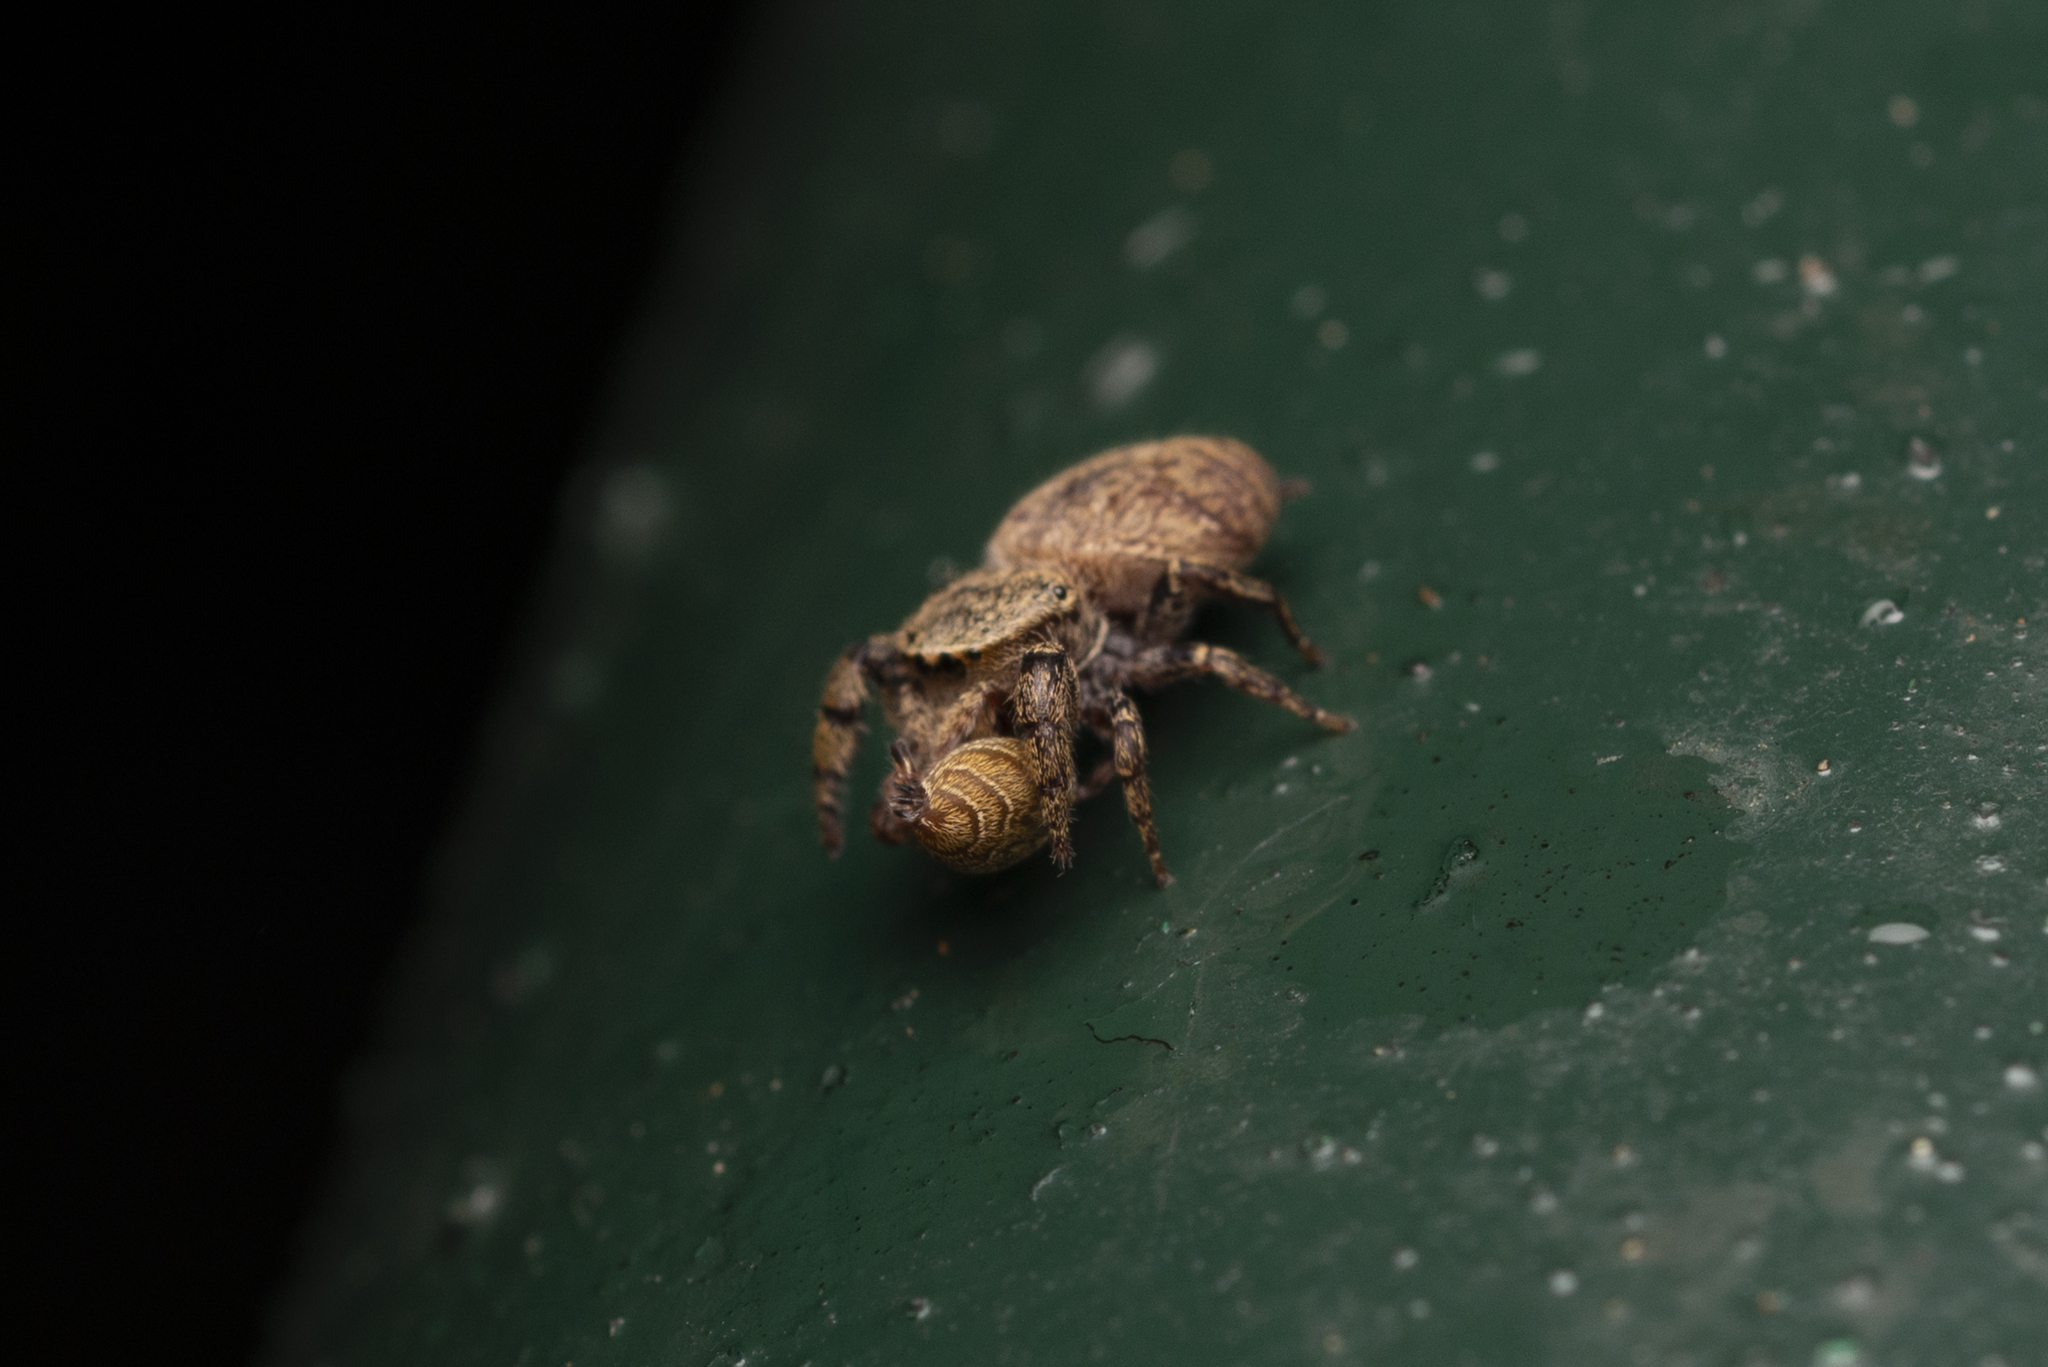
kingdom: Animalia
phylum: Arthropoda
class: Arachnida
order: Araneae
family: Salticidae
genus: Rhene
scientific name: Rhene flavicomans
